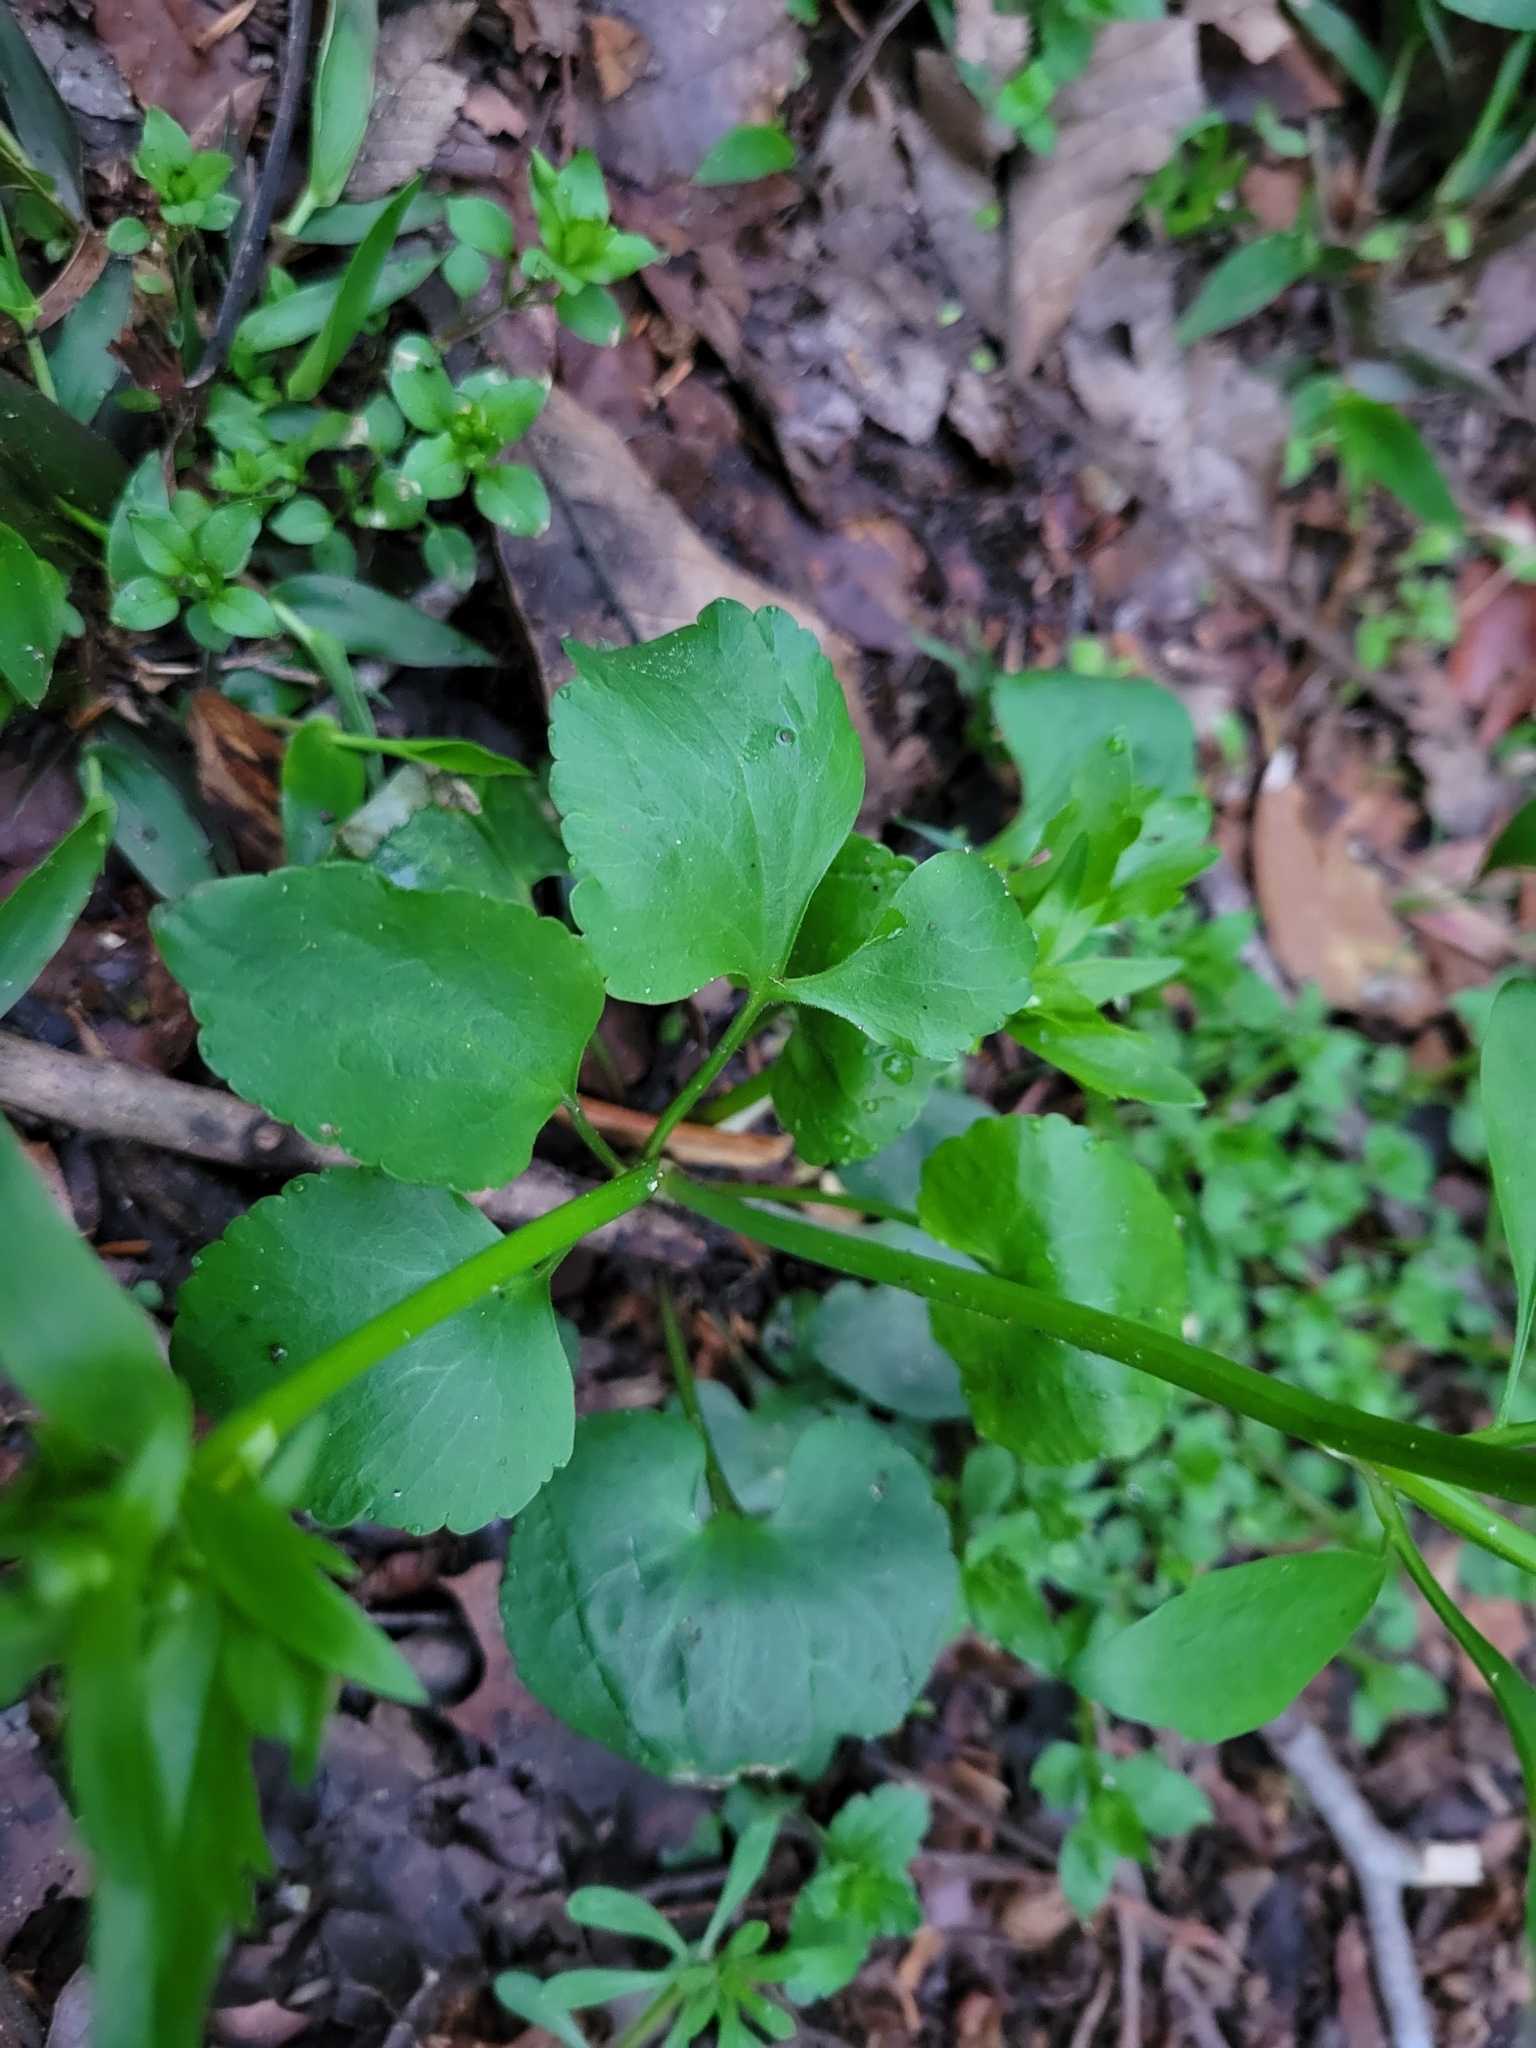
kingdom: Plantae
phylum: Tracheophyta
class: Magnoliopsida
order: Ranunculales
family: Ranunculaceae
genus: Ranunculus
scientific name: Ranunculus abortivus
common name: Early wood buttercup
